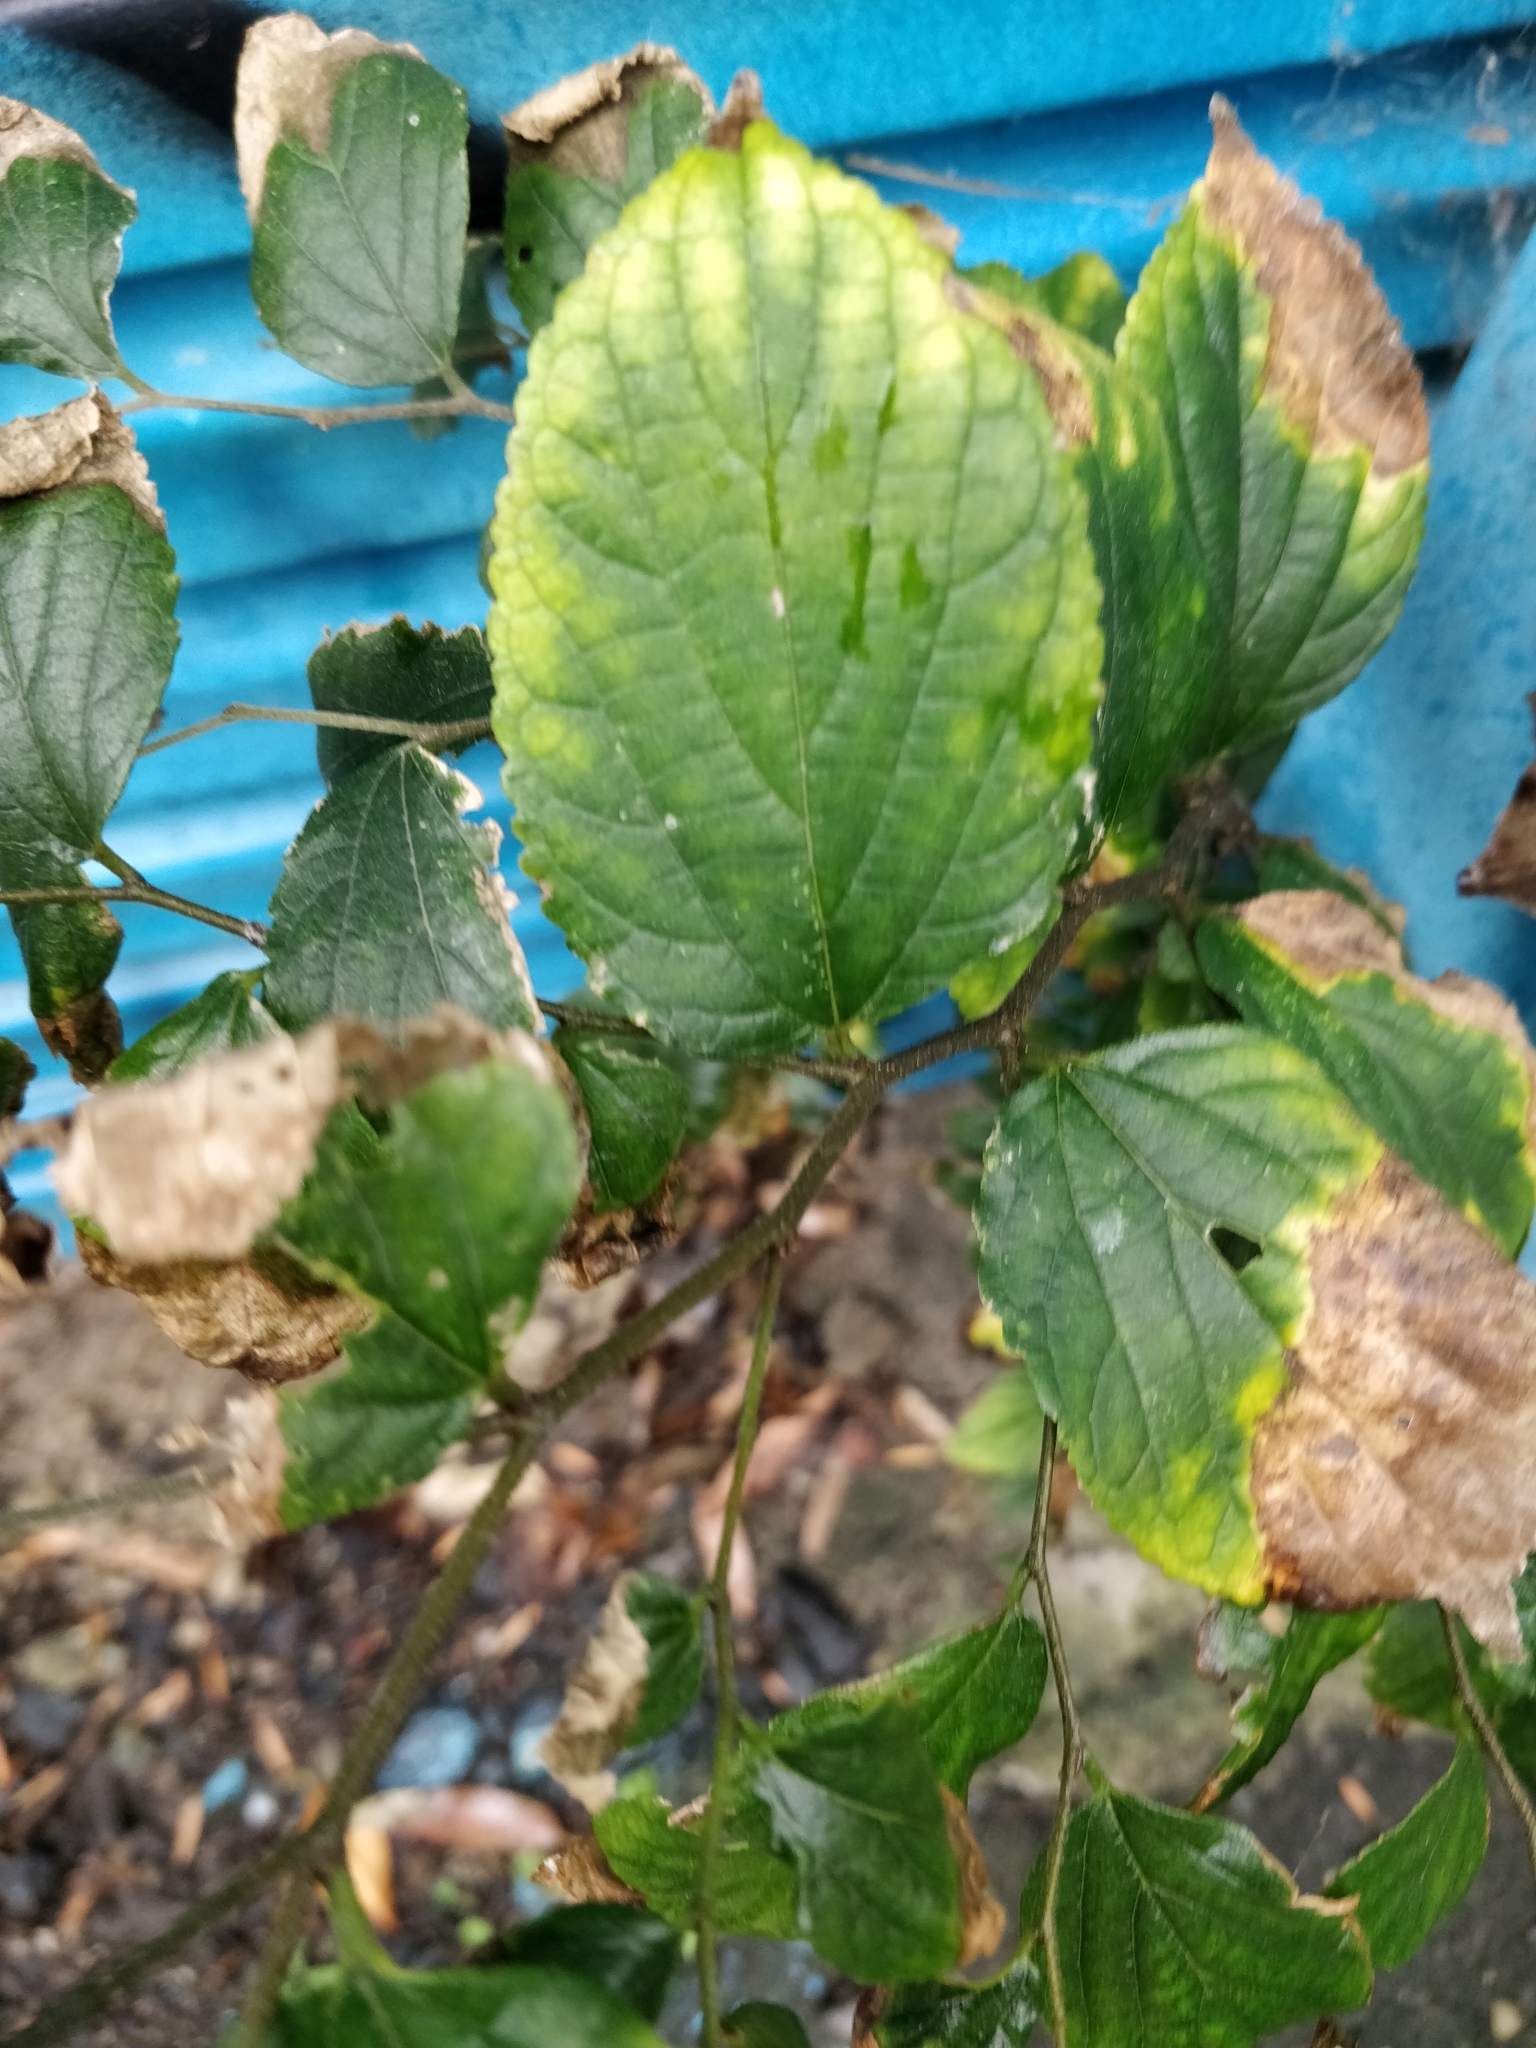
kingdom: Plantae
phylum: Tracheophyta
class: Magnoliopsida
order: Rosales
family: Cannabaceae
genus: Celtis
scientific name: Celtis sinensis
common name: Chinese hackberry
